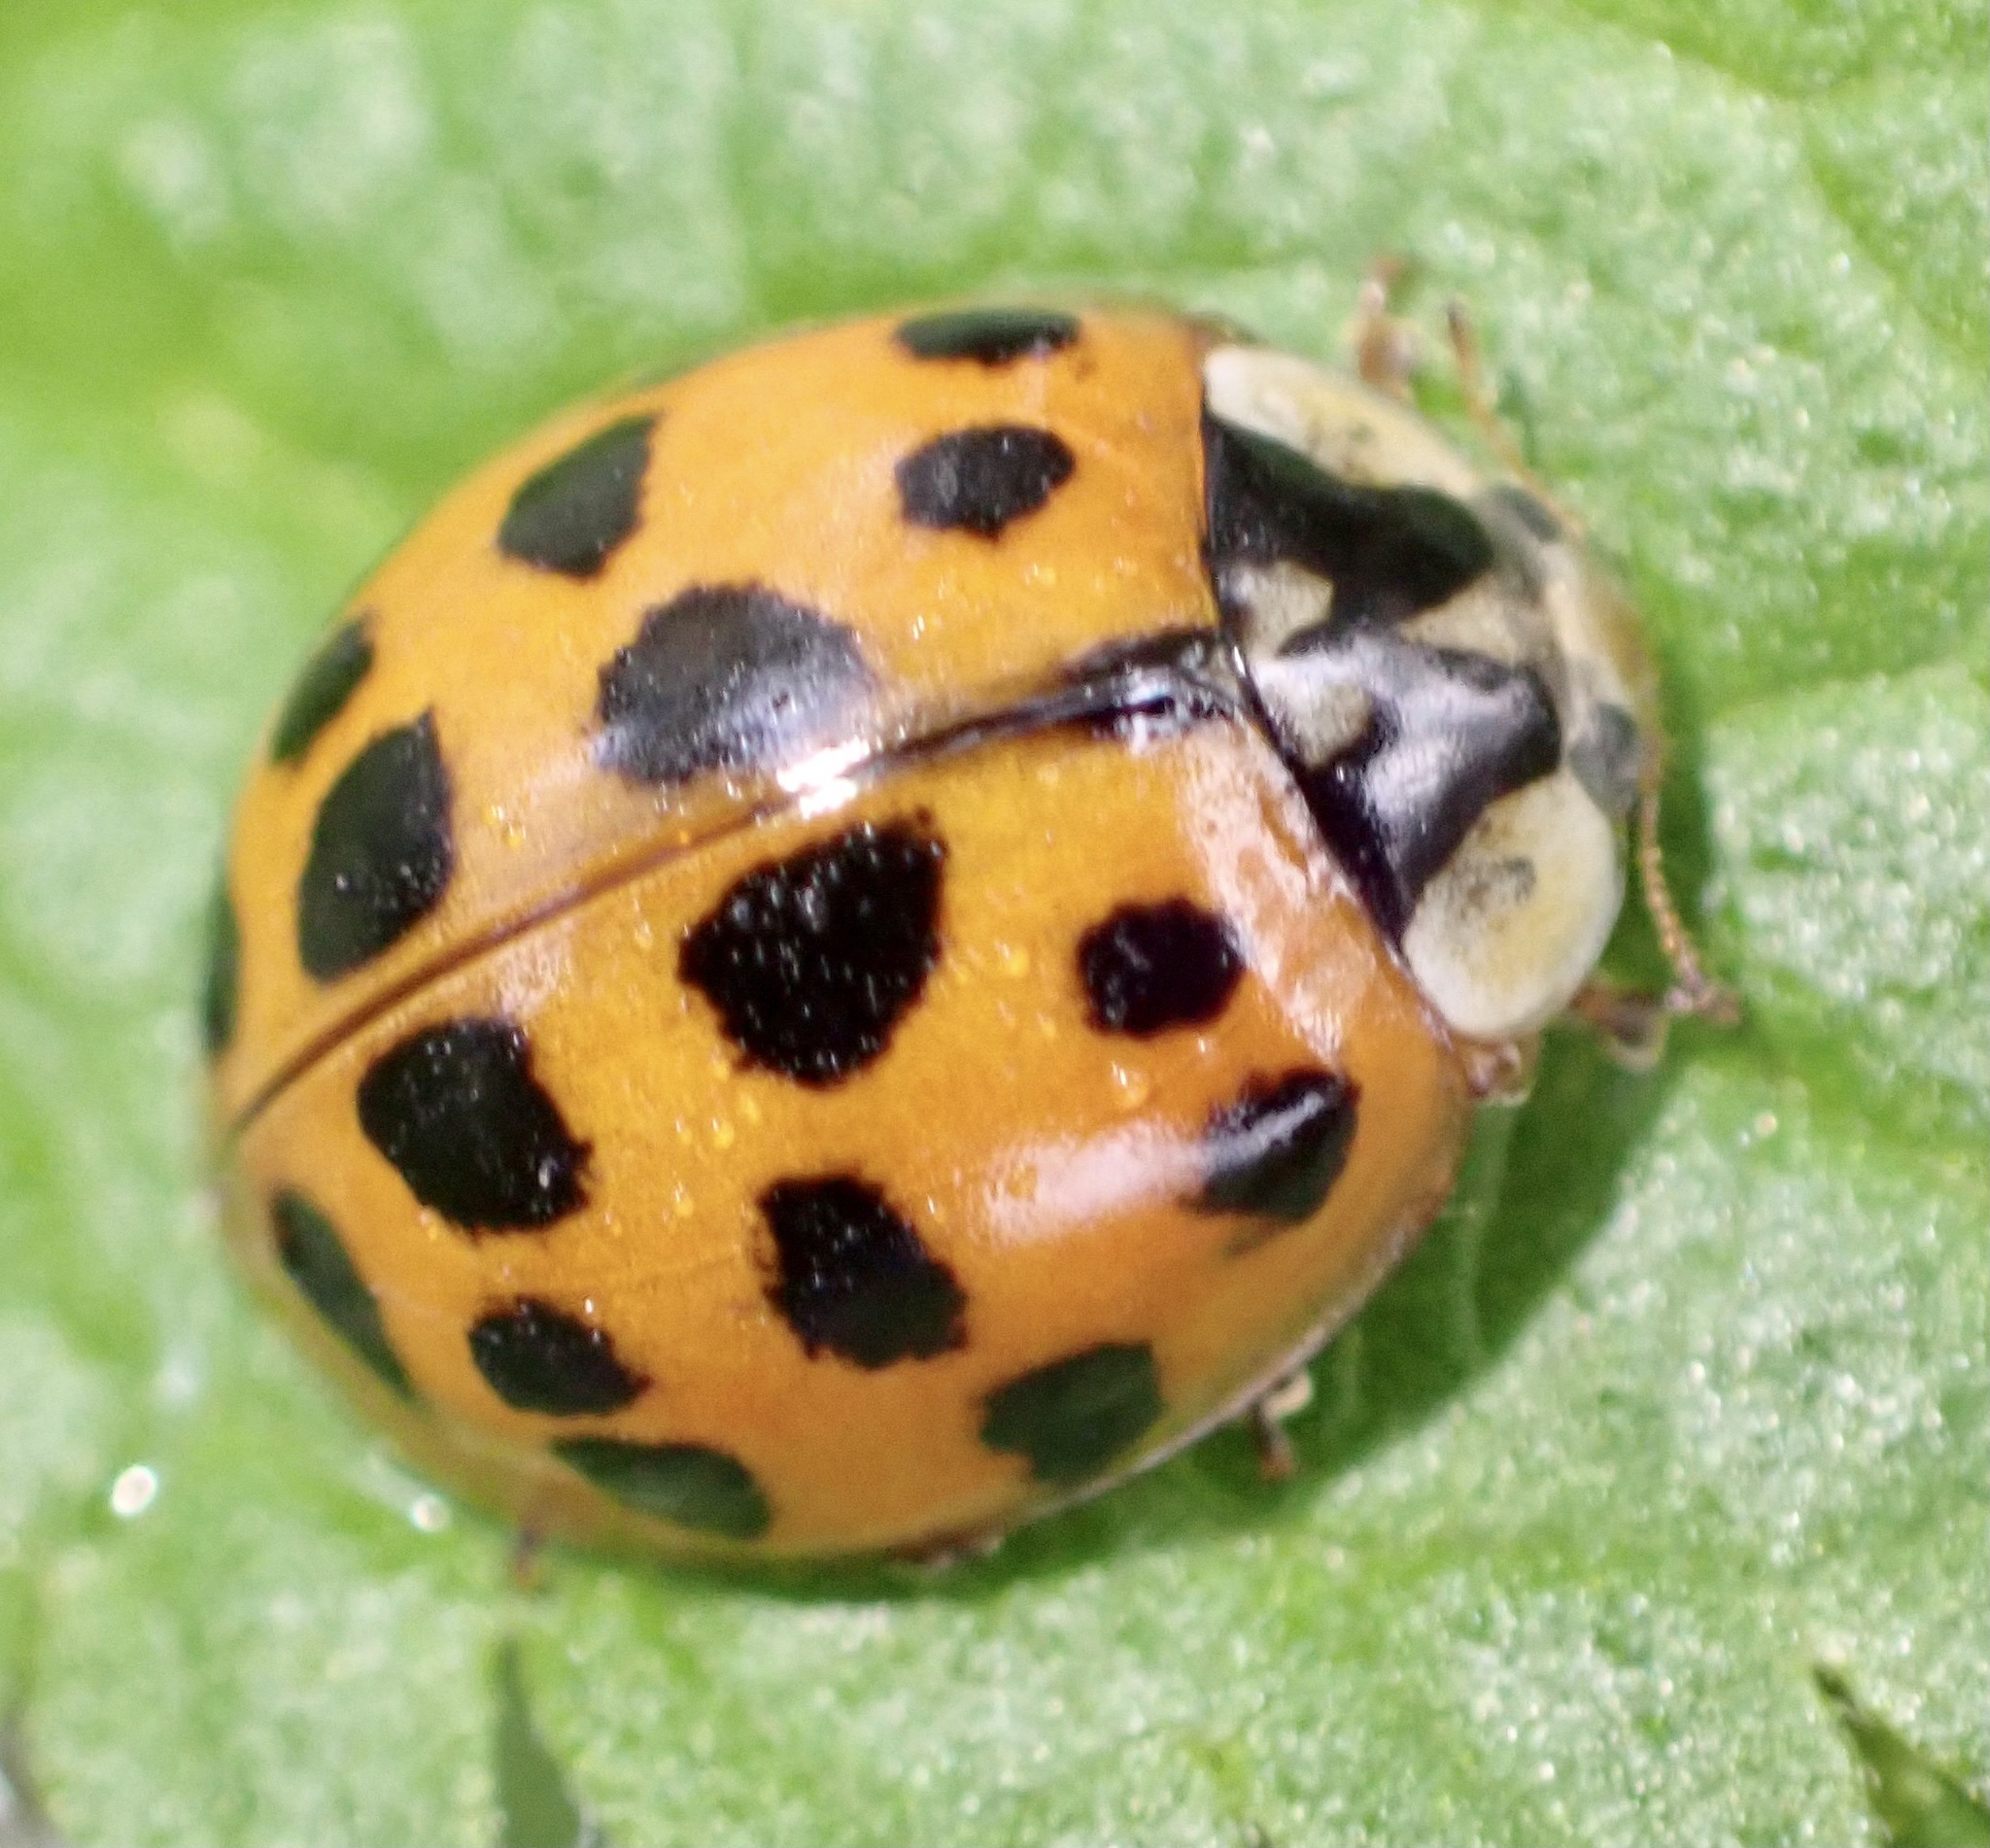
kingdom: Animalia
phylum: Arthropoda
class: Insecta
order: Coleoptera
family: Coccinellidae
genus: Harmonia
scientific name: Harmonia axyridis
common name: Harlequin ladybird
